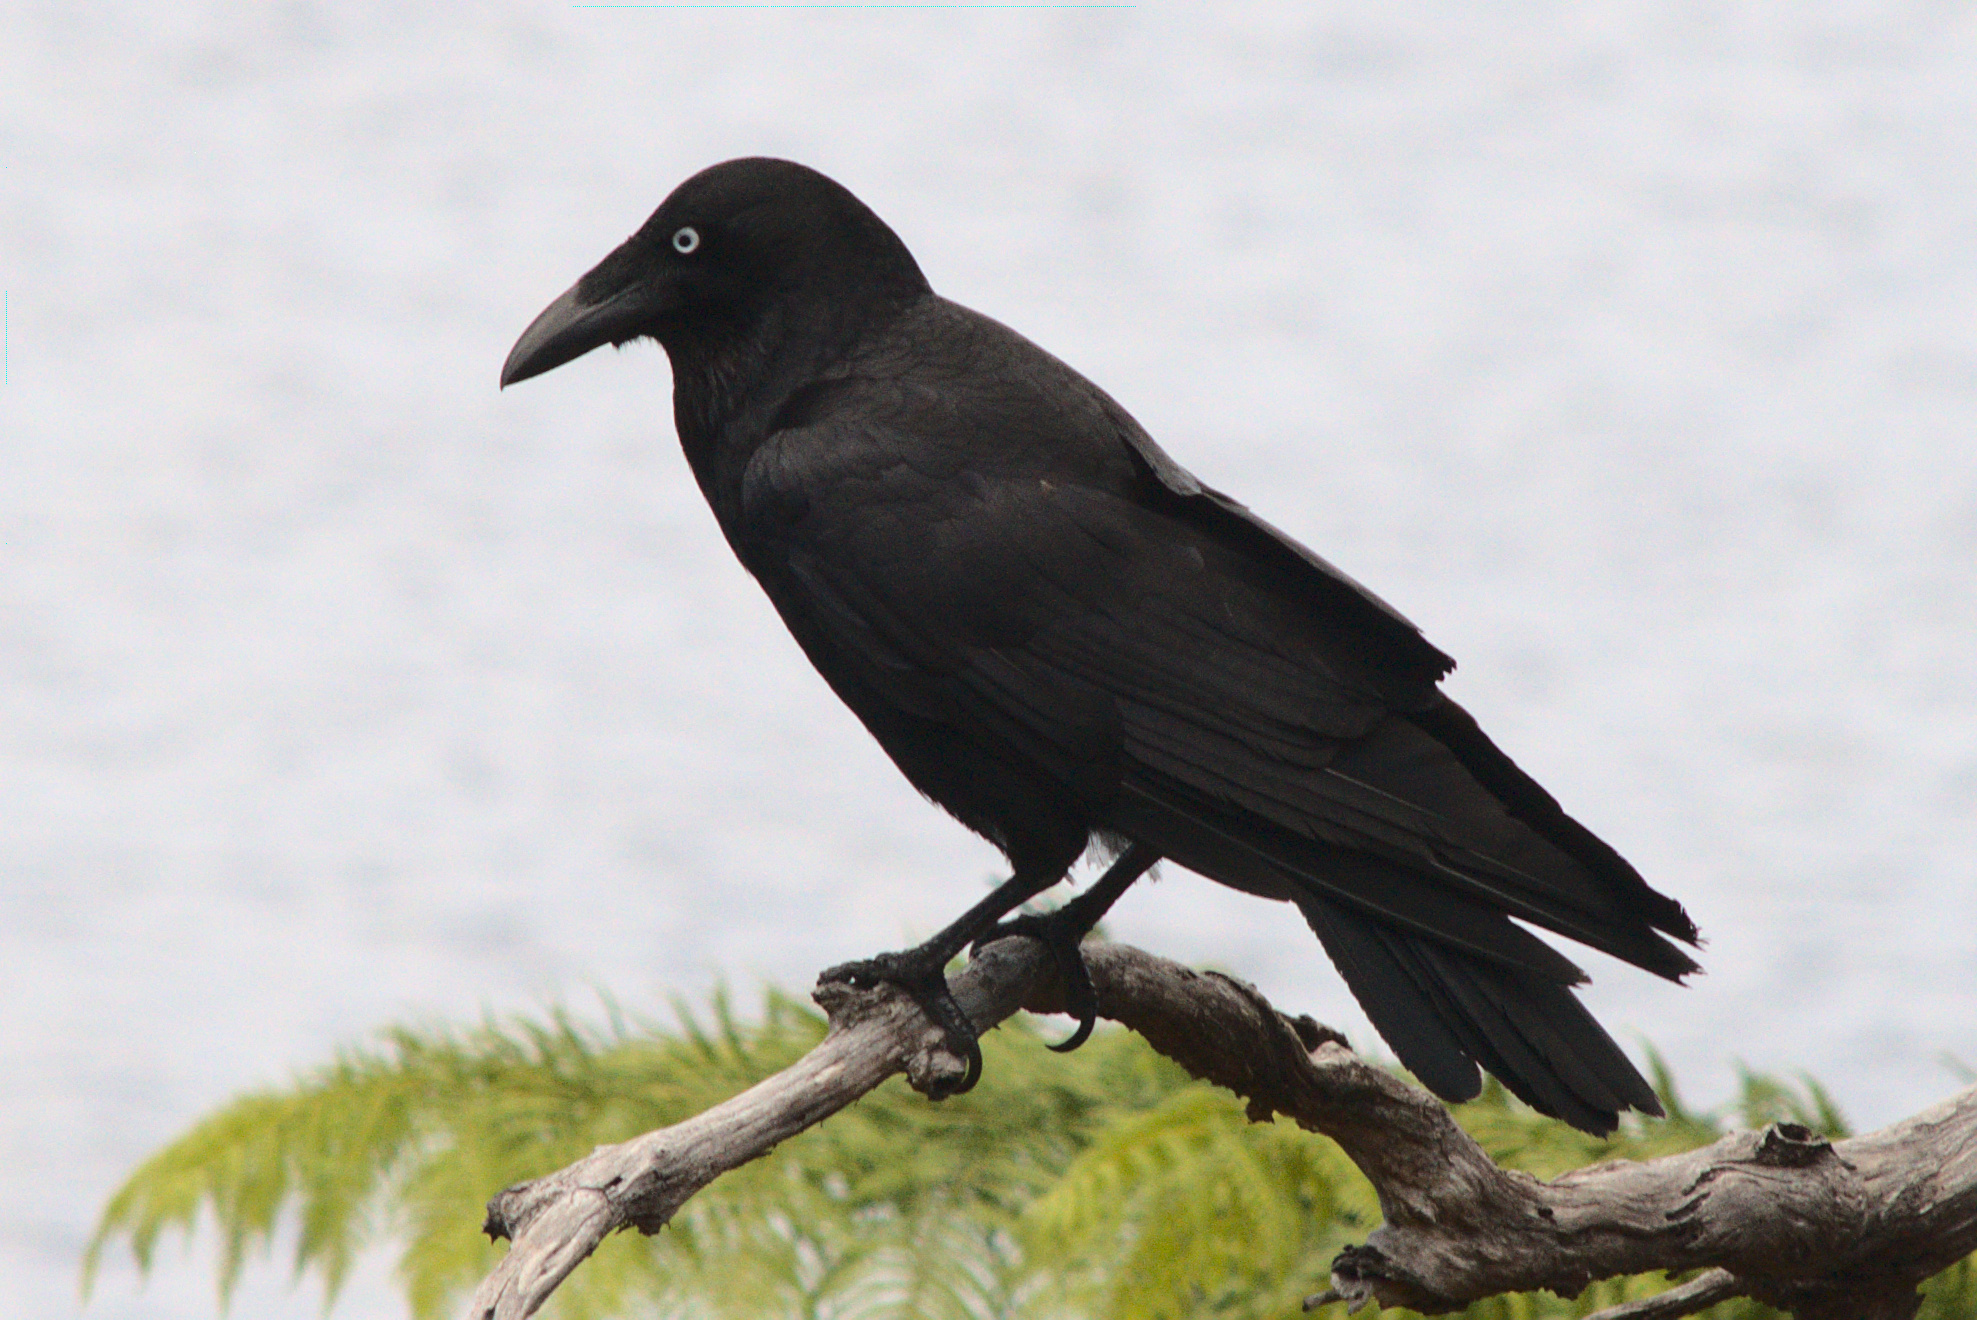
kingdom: Animalia
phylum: Chordata
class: Aves
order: Passeriformes
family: Corvidae
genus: Corvus
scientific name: Corvus tasmanicus
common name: Forest raven
